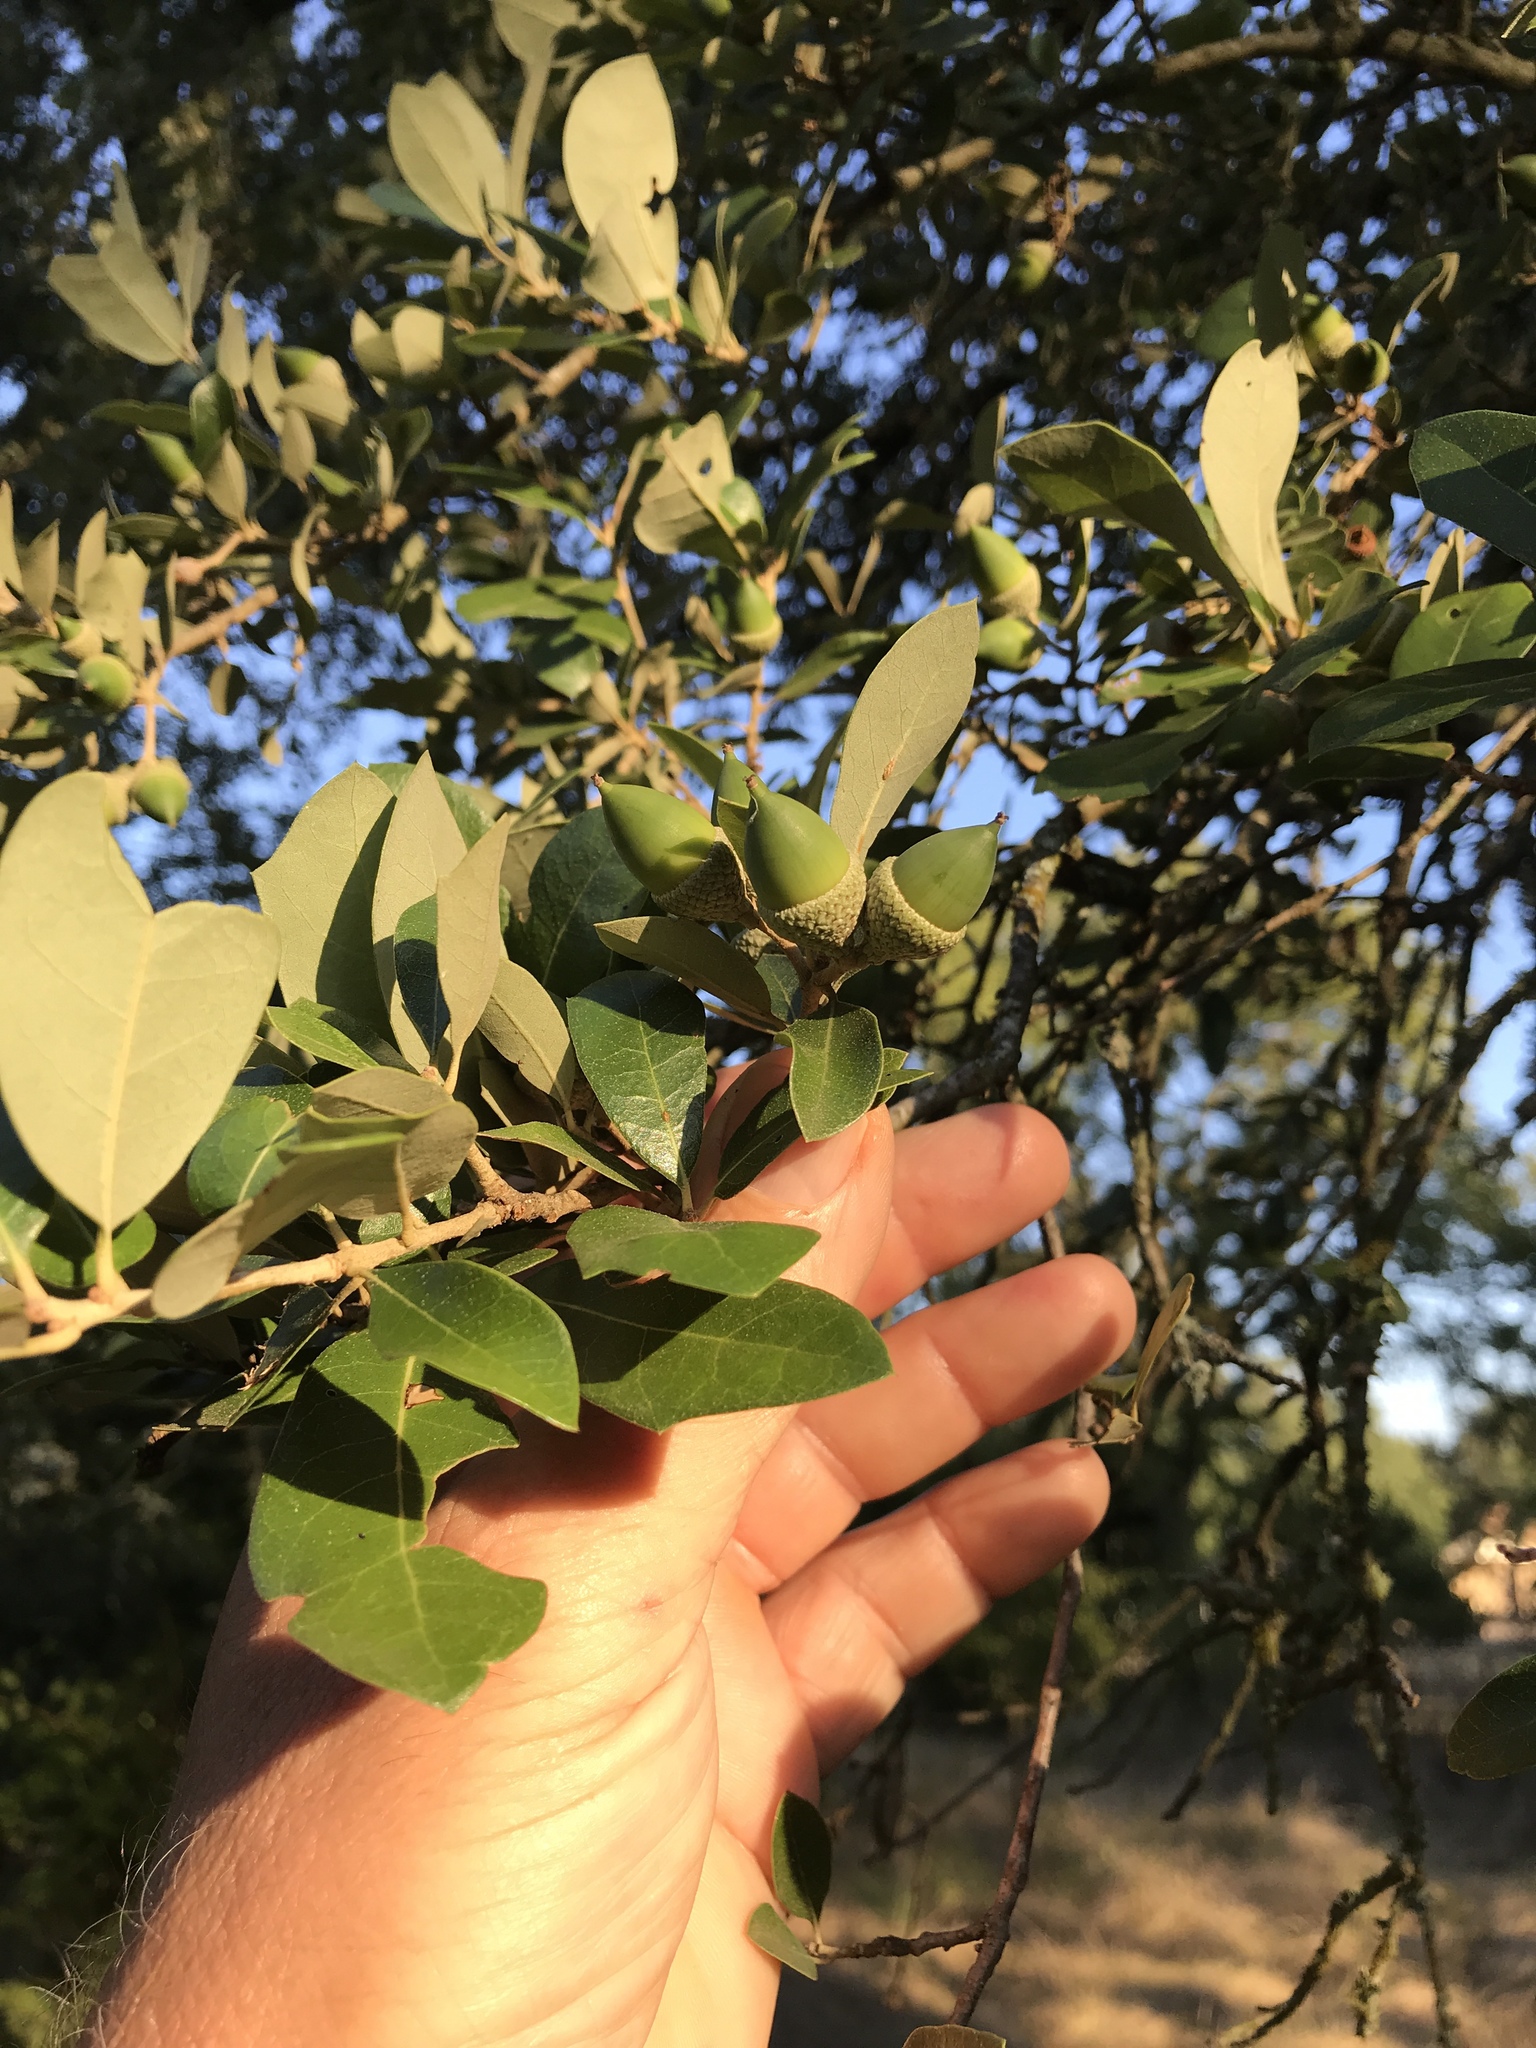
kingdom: Plantae
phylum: Tracheophyta
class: Magnoliopsida
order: Fagales
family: Fagaceae
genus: Quercus
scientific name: Quercus fusiformis
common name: Texas live oak
